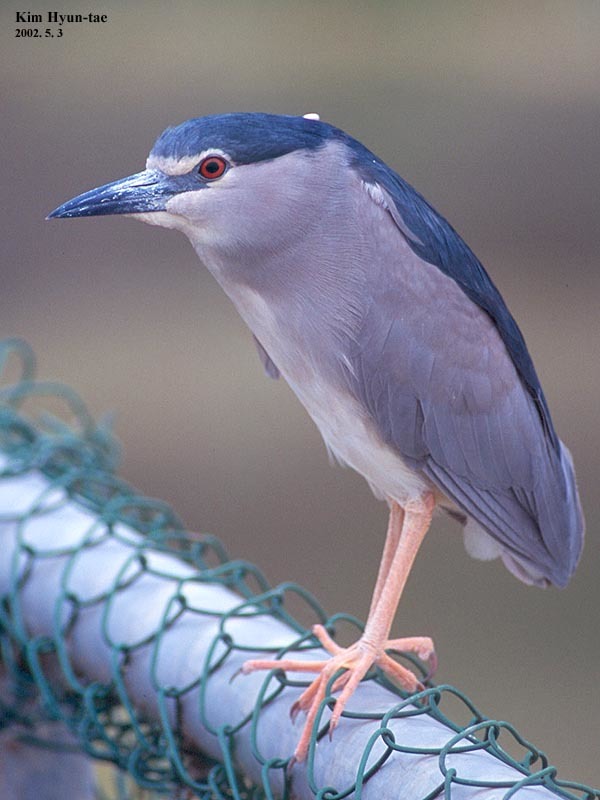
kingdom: Animalia
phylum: Chordata
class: Aves
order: Pelecaniformes
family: Ardeidae
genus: Nycticorax
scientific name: Nycticorax nycticorax
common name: Black-crowned night heron
